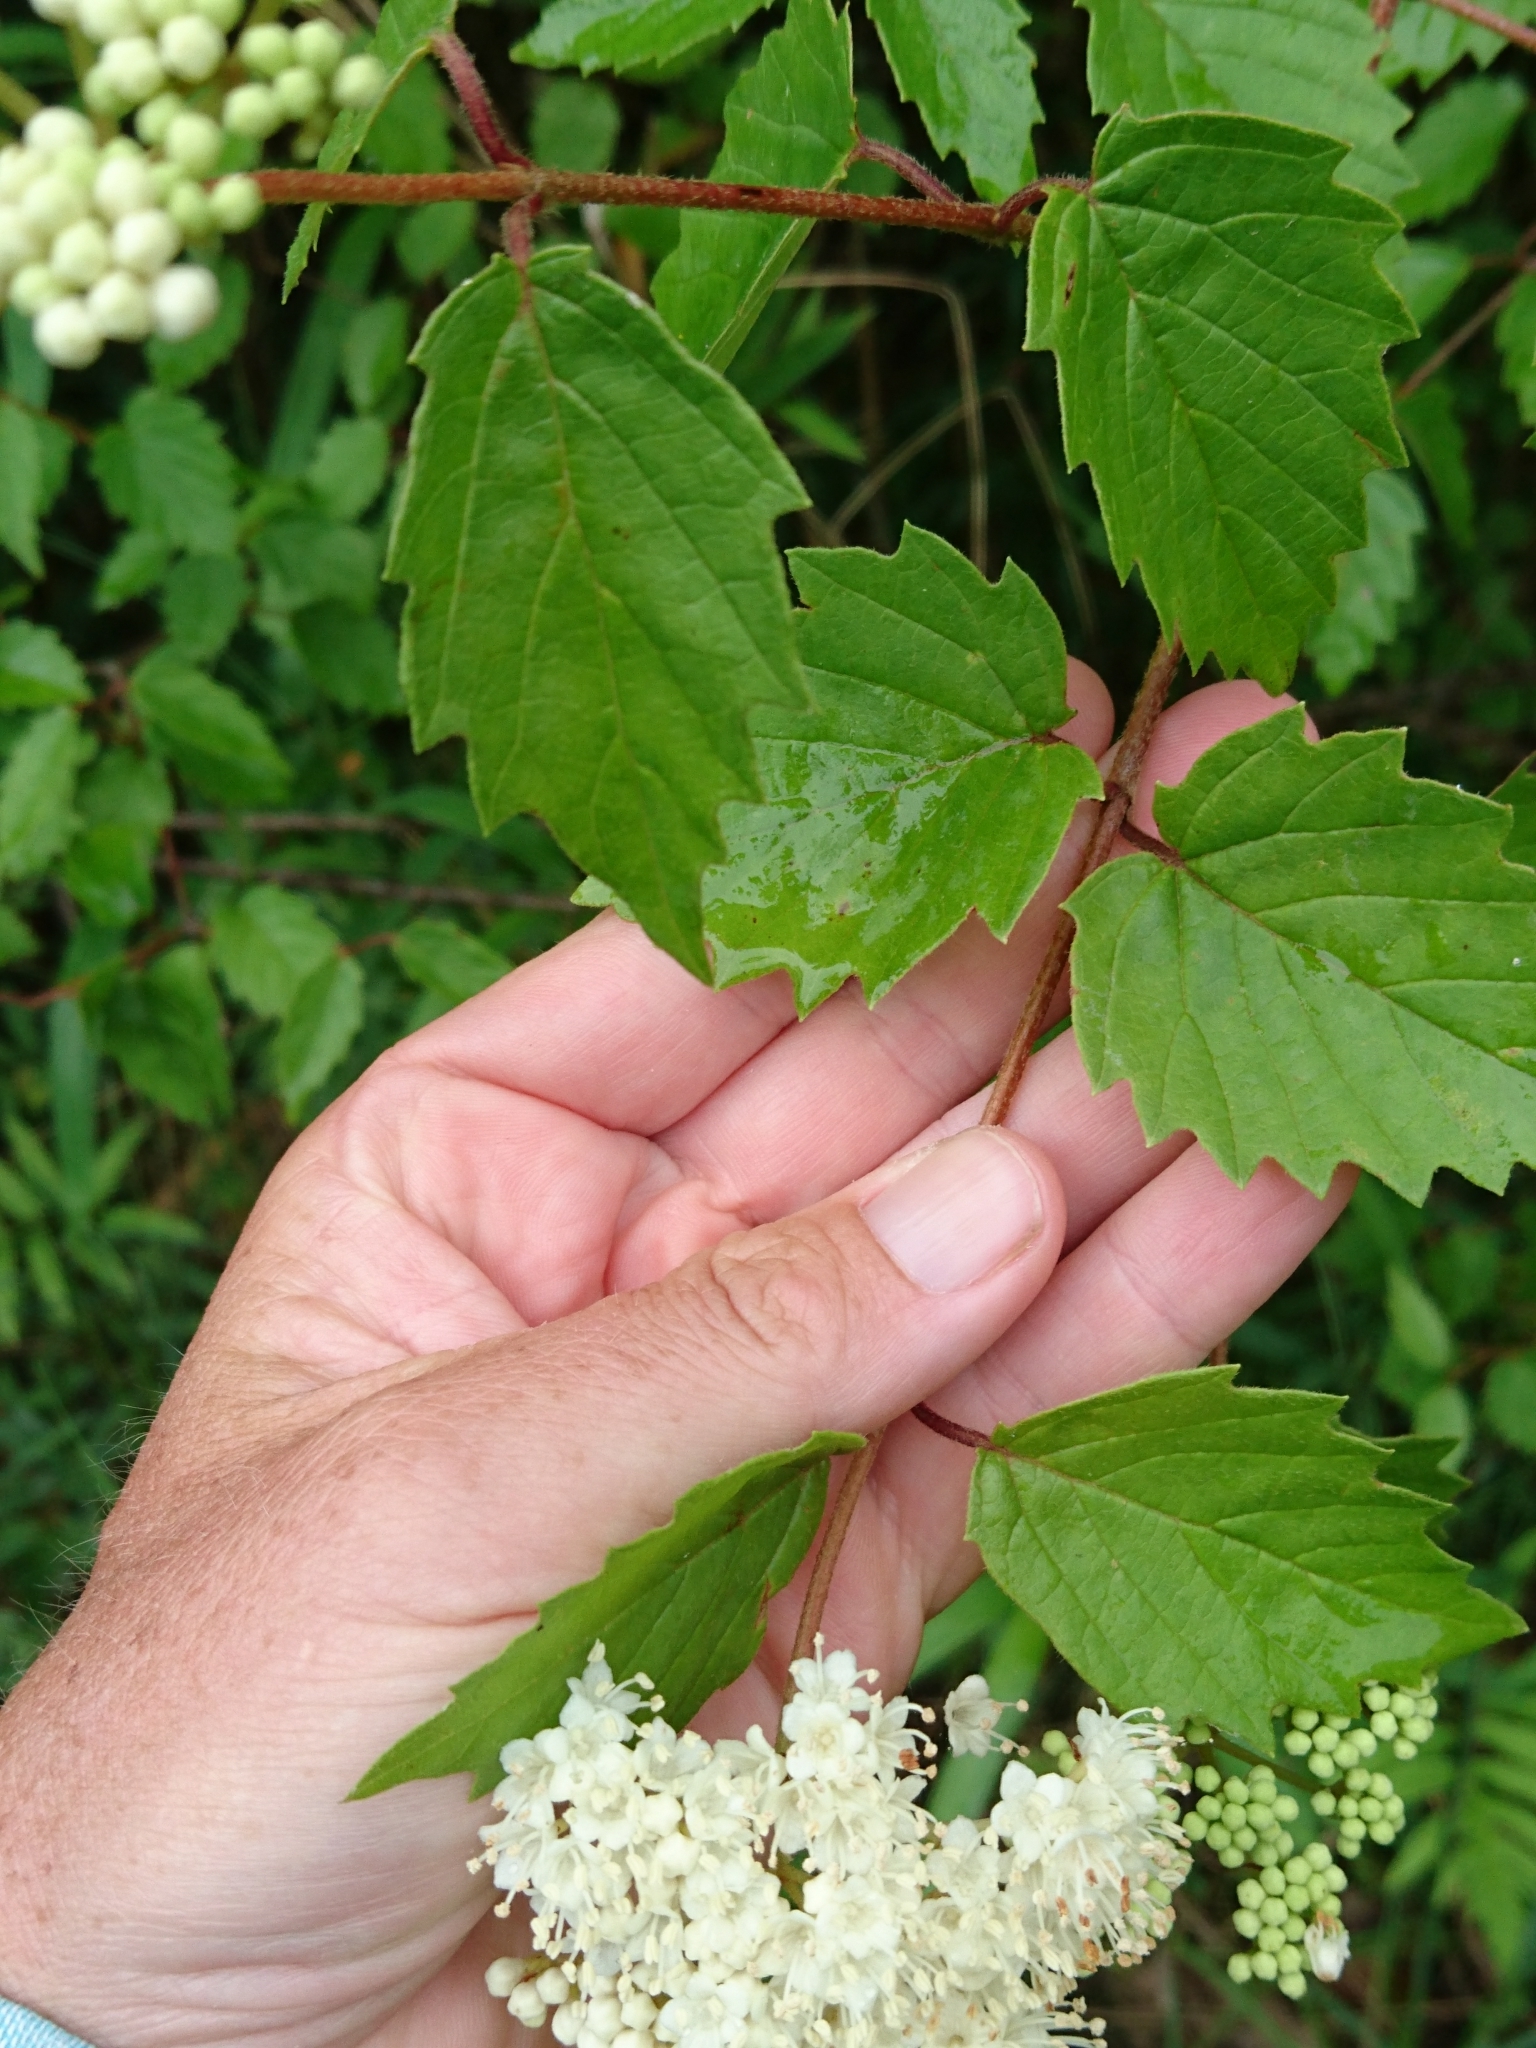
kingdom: Plantae
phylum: Tracheophyta
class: Magnoliopsida
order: Dipsacales
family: Viburnaceae
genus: Viburnum
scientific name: Viburnum scabrellum
